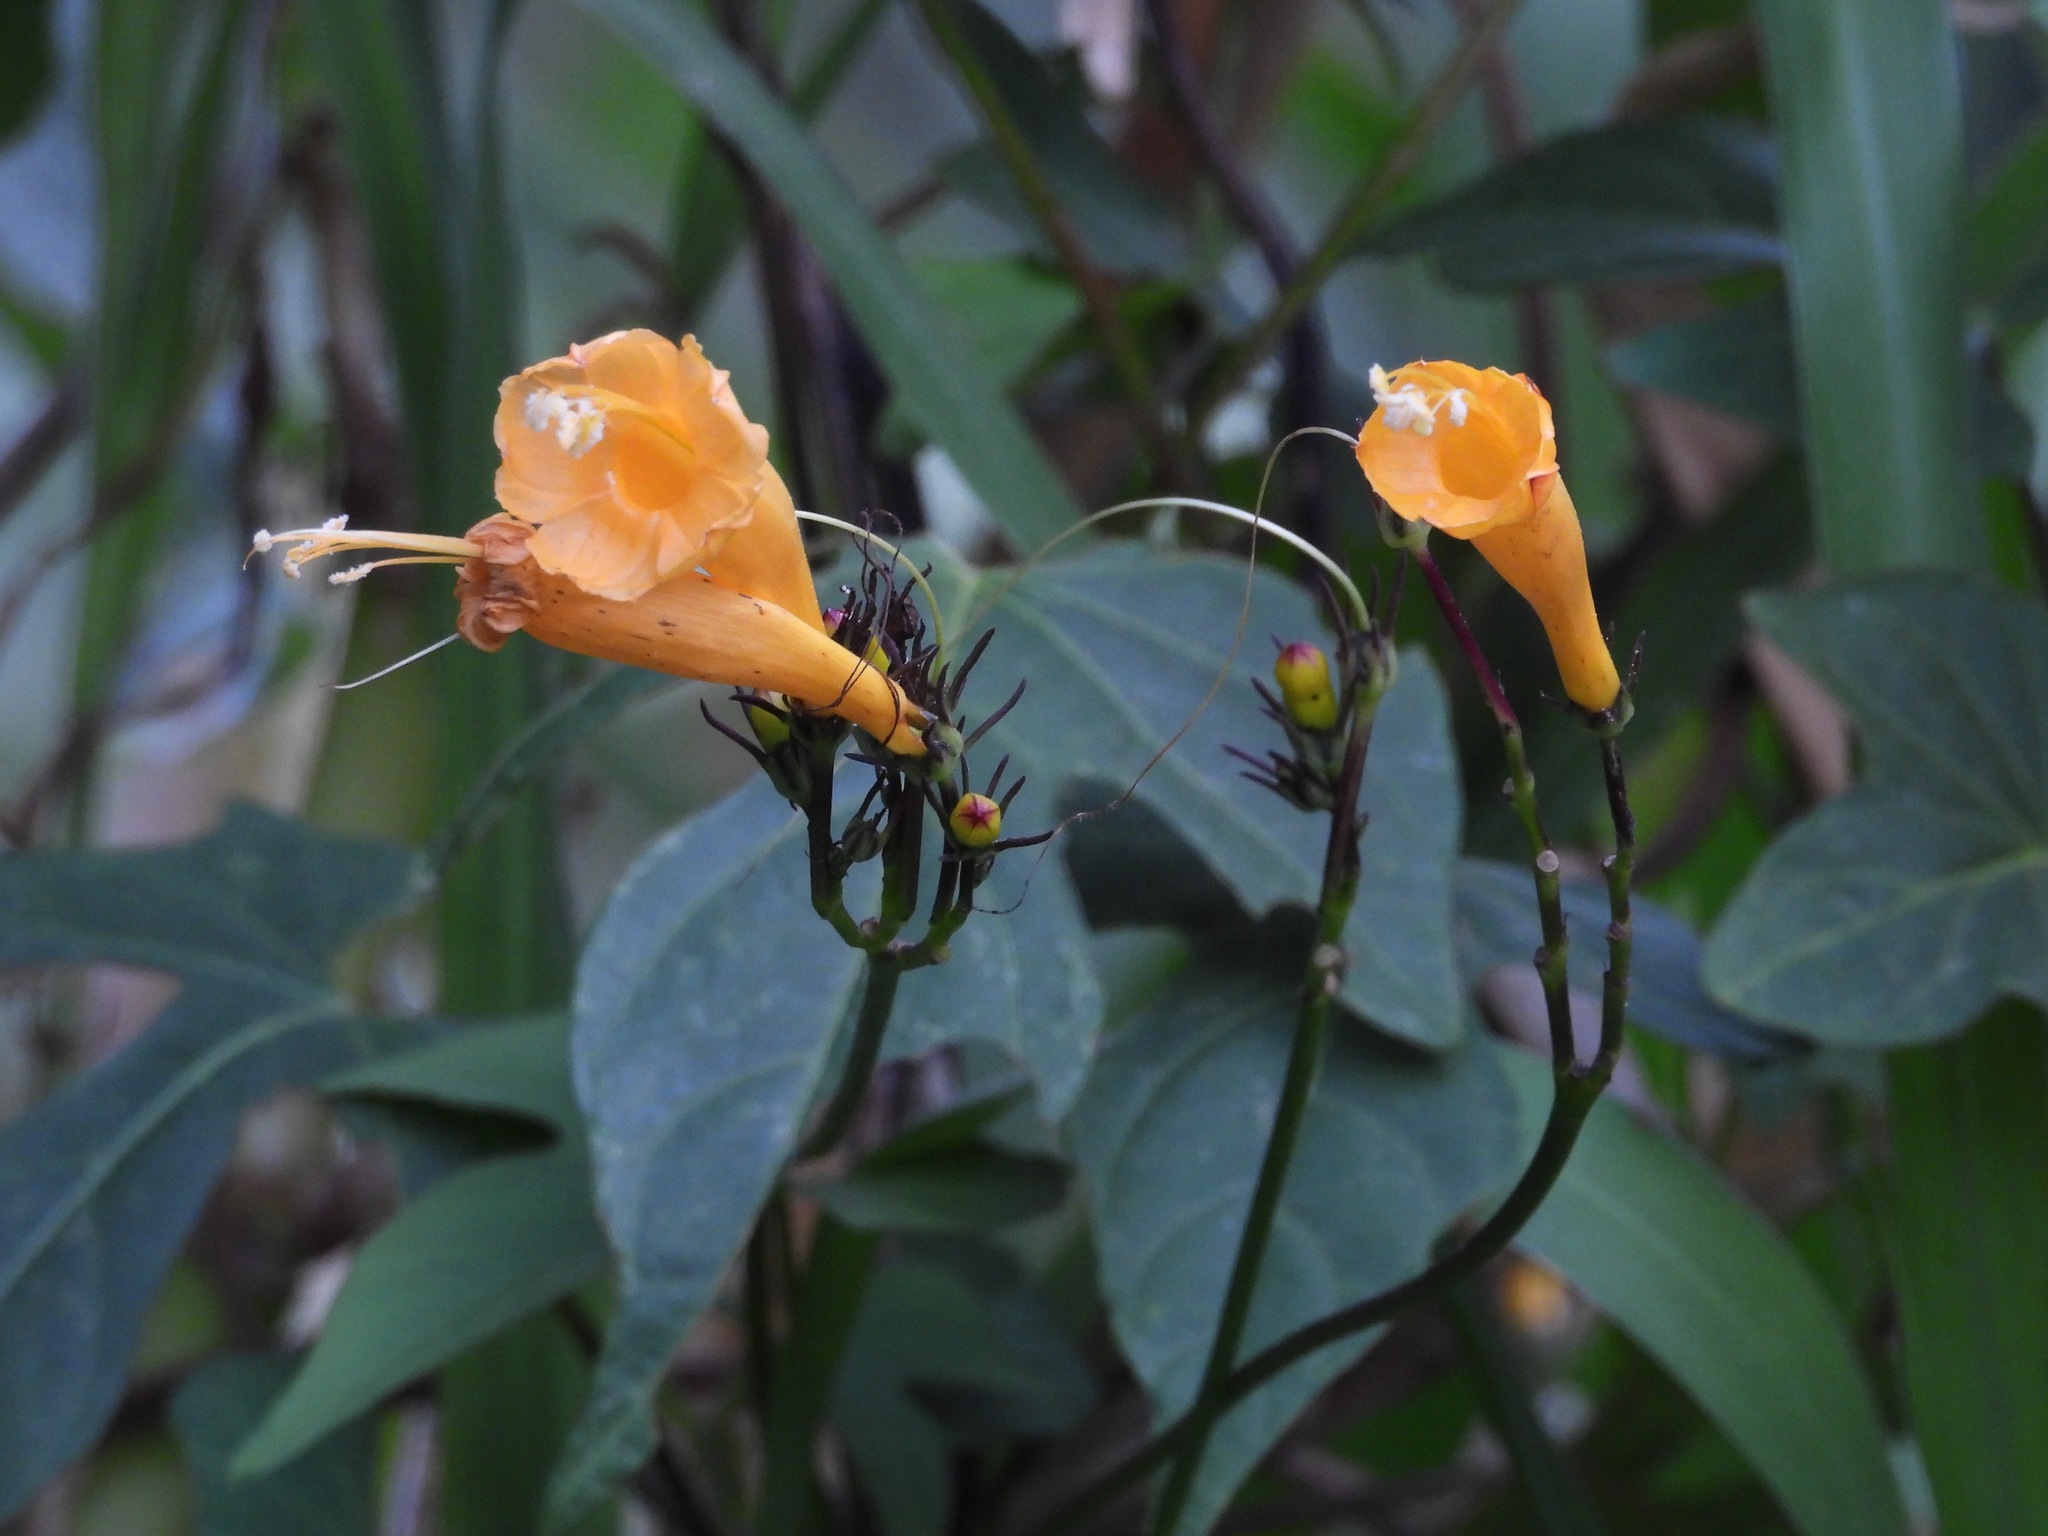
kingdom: Plantae
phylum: Tracheophyta
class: Magnoliopsida
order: Solanales
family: Convolvulaceae
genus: Ipomoea
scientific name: Ipomoea lutea
